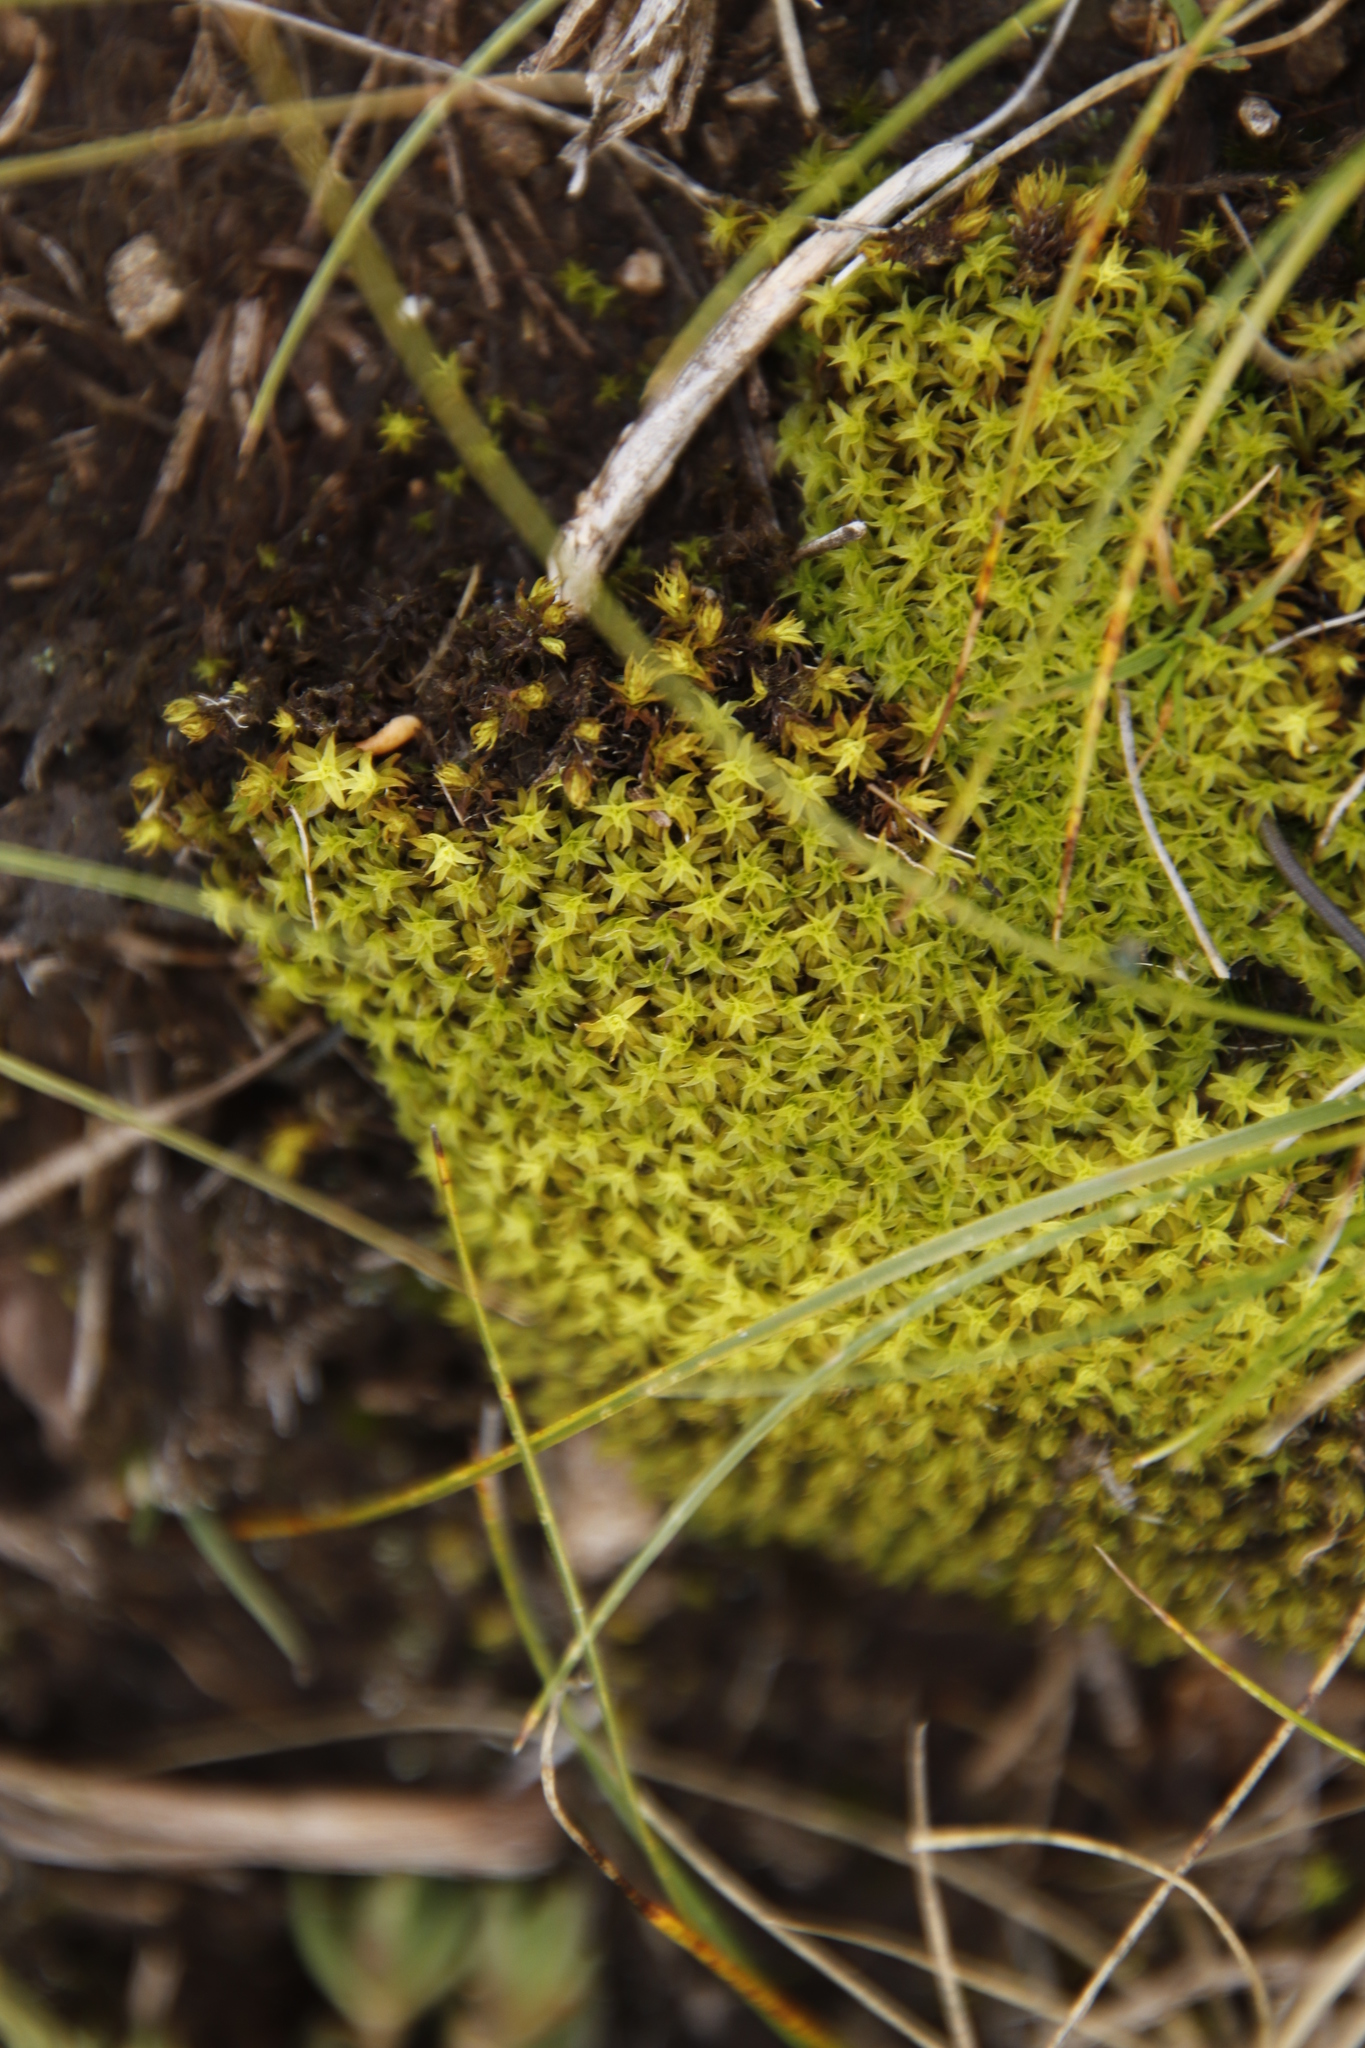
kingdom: Plantae
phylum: Bryophyta
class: Bryopsida
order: Pottiales
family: Pottiaceae
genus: Trichostomum
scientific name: Trichostomum brachydontium
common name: Variable crisp-moss
